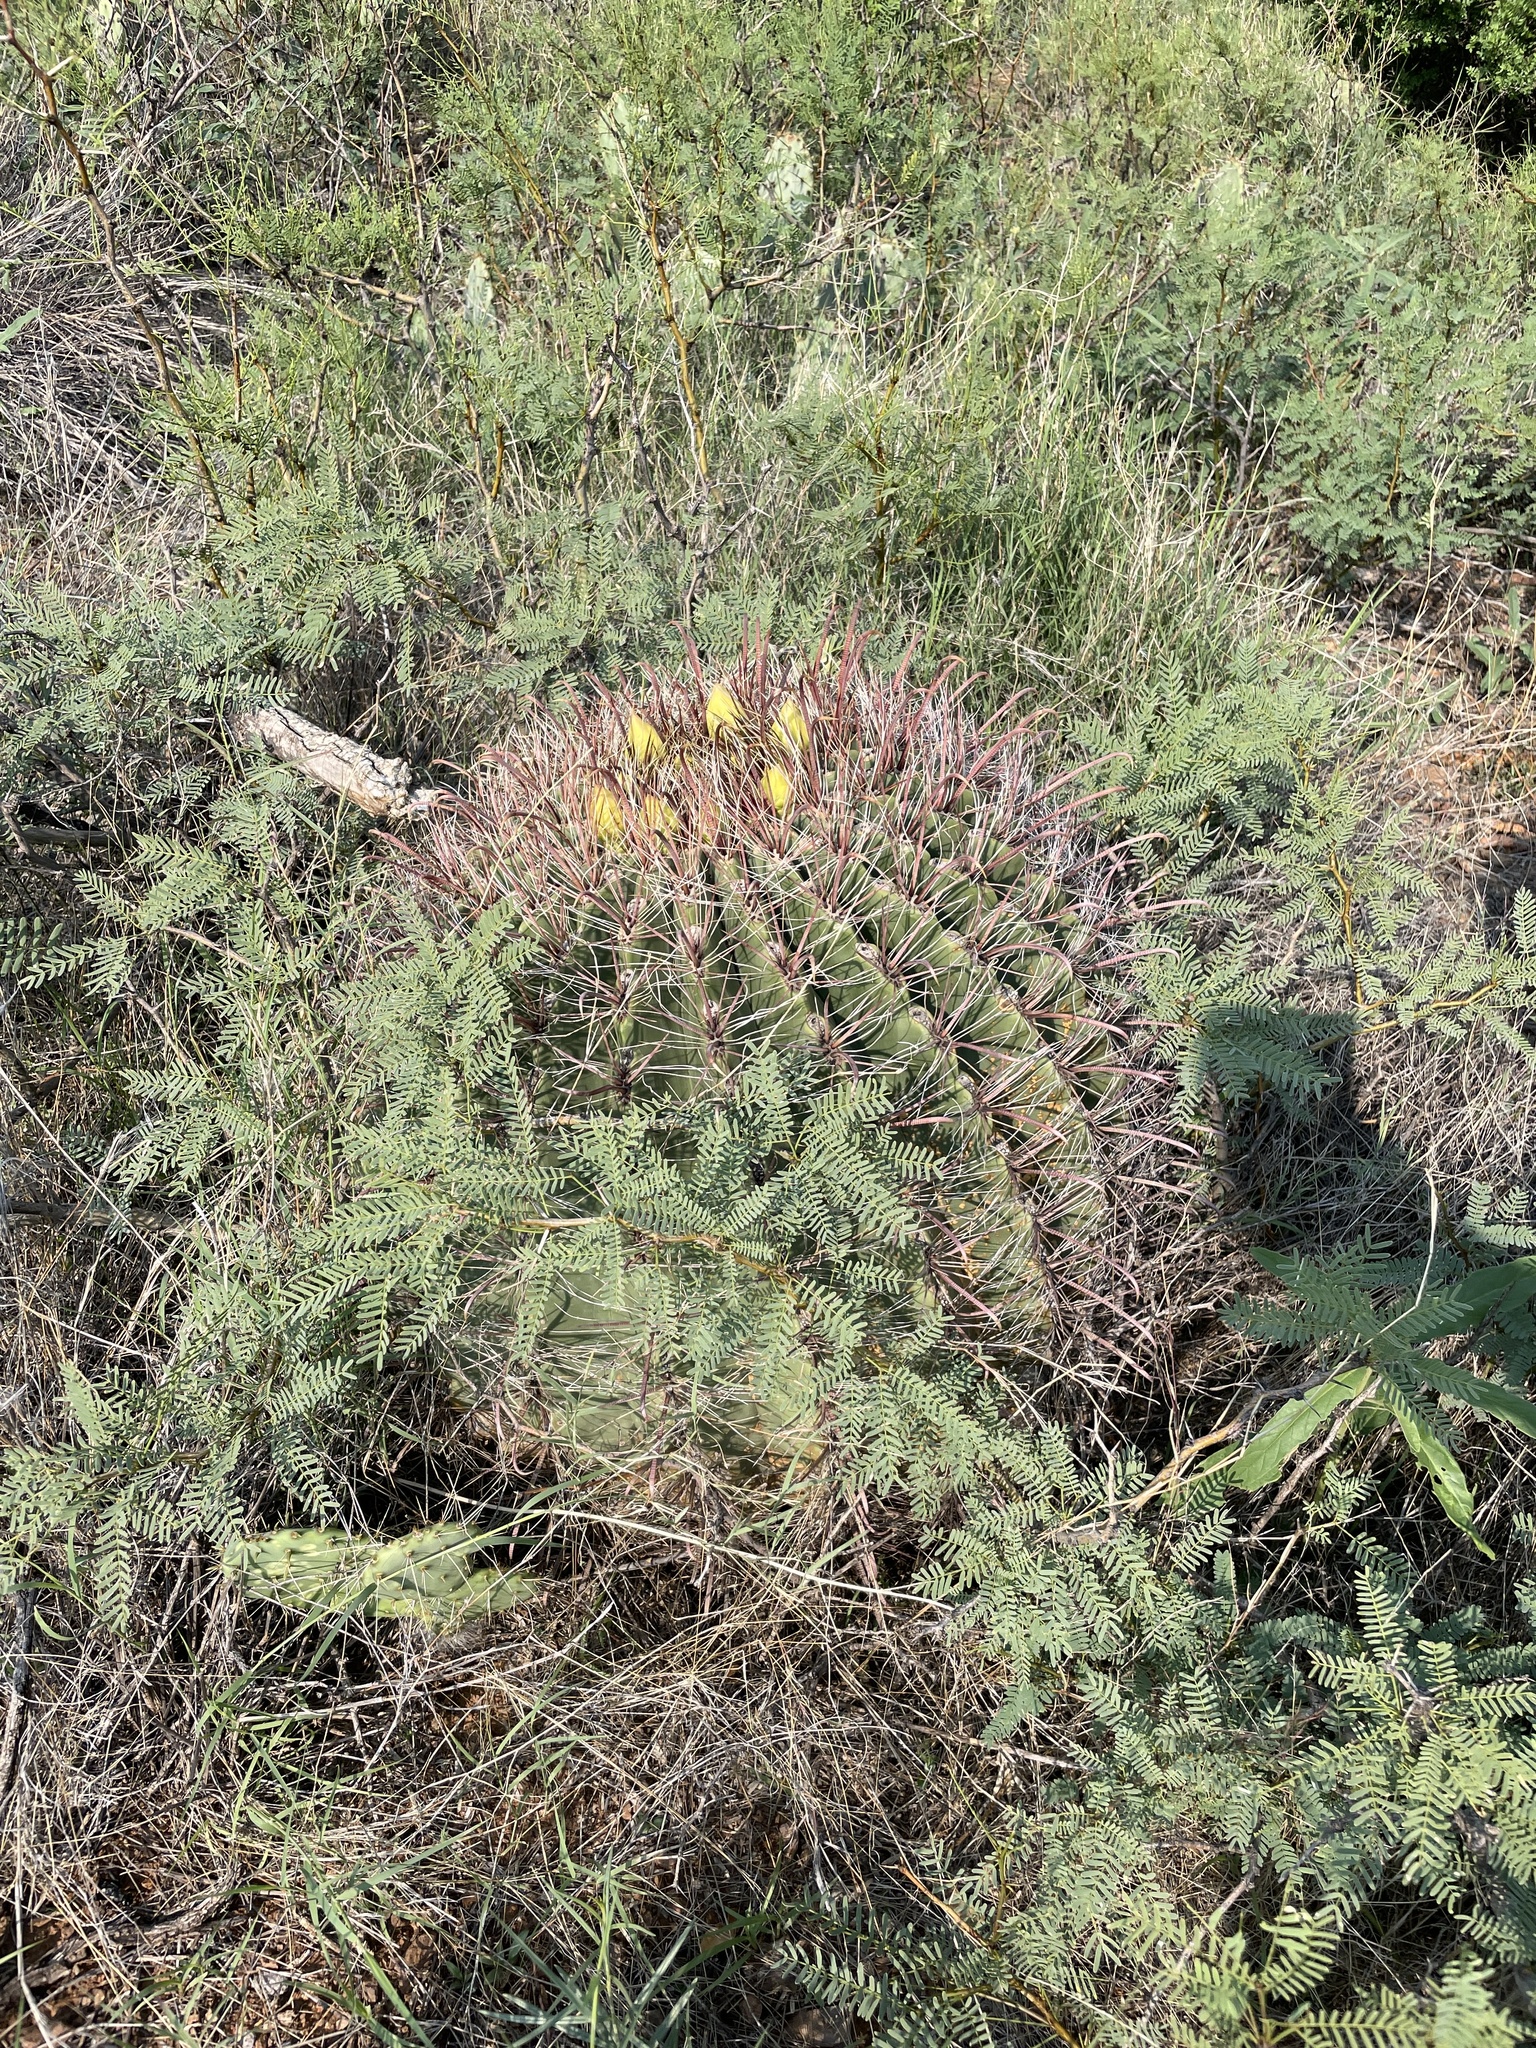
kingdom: Plantae
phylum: Tracheophyta
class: Magnoliopsida
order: Caryophyllales
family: Cactaceae
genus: Ferocactus
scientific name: Ferocactus wislizeni
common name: Candy barrel cactus
